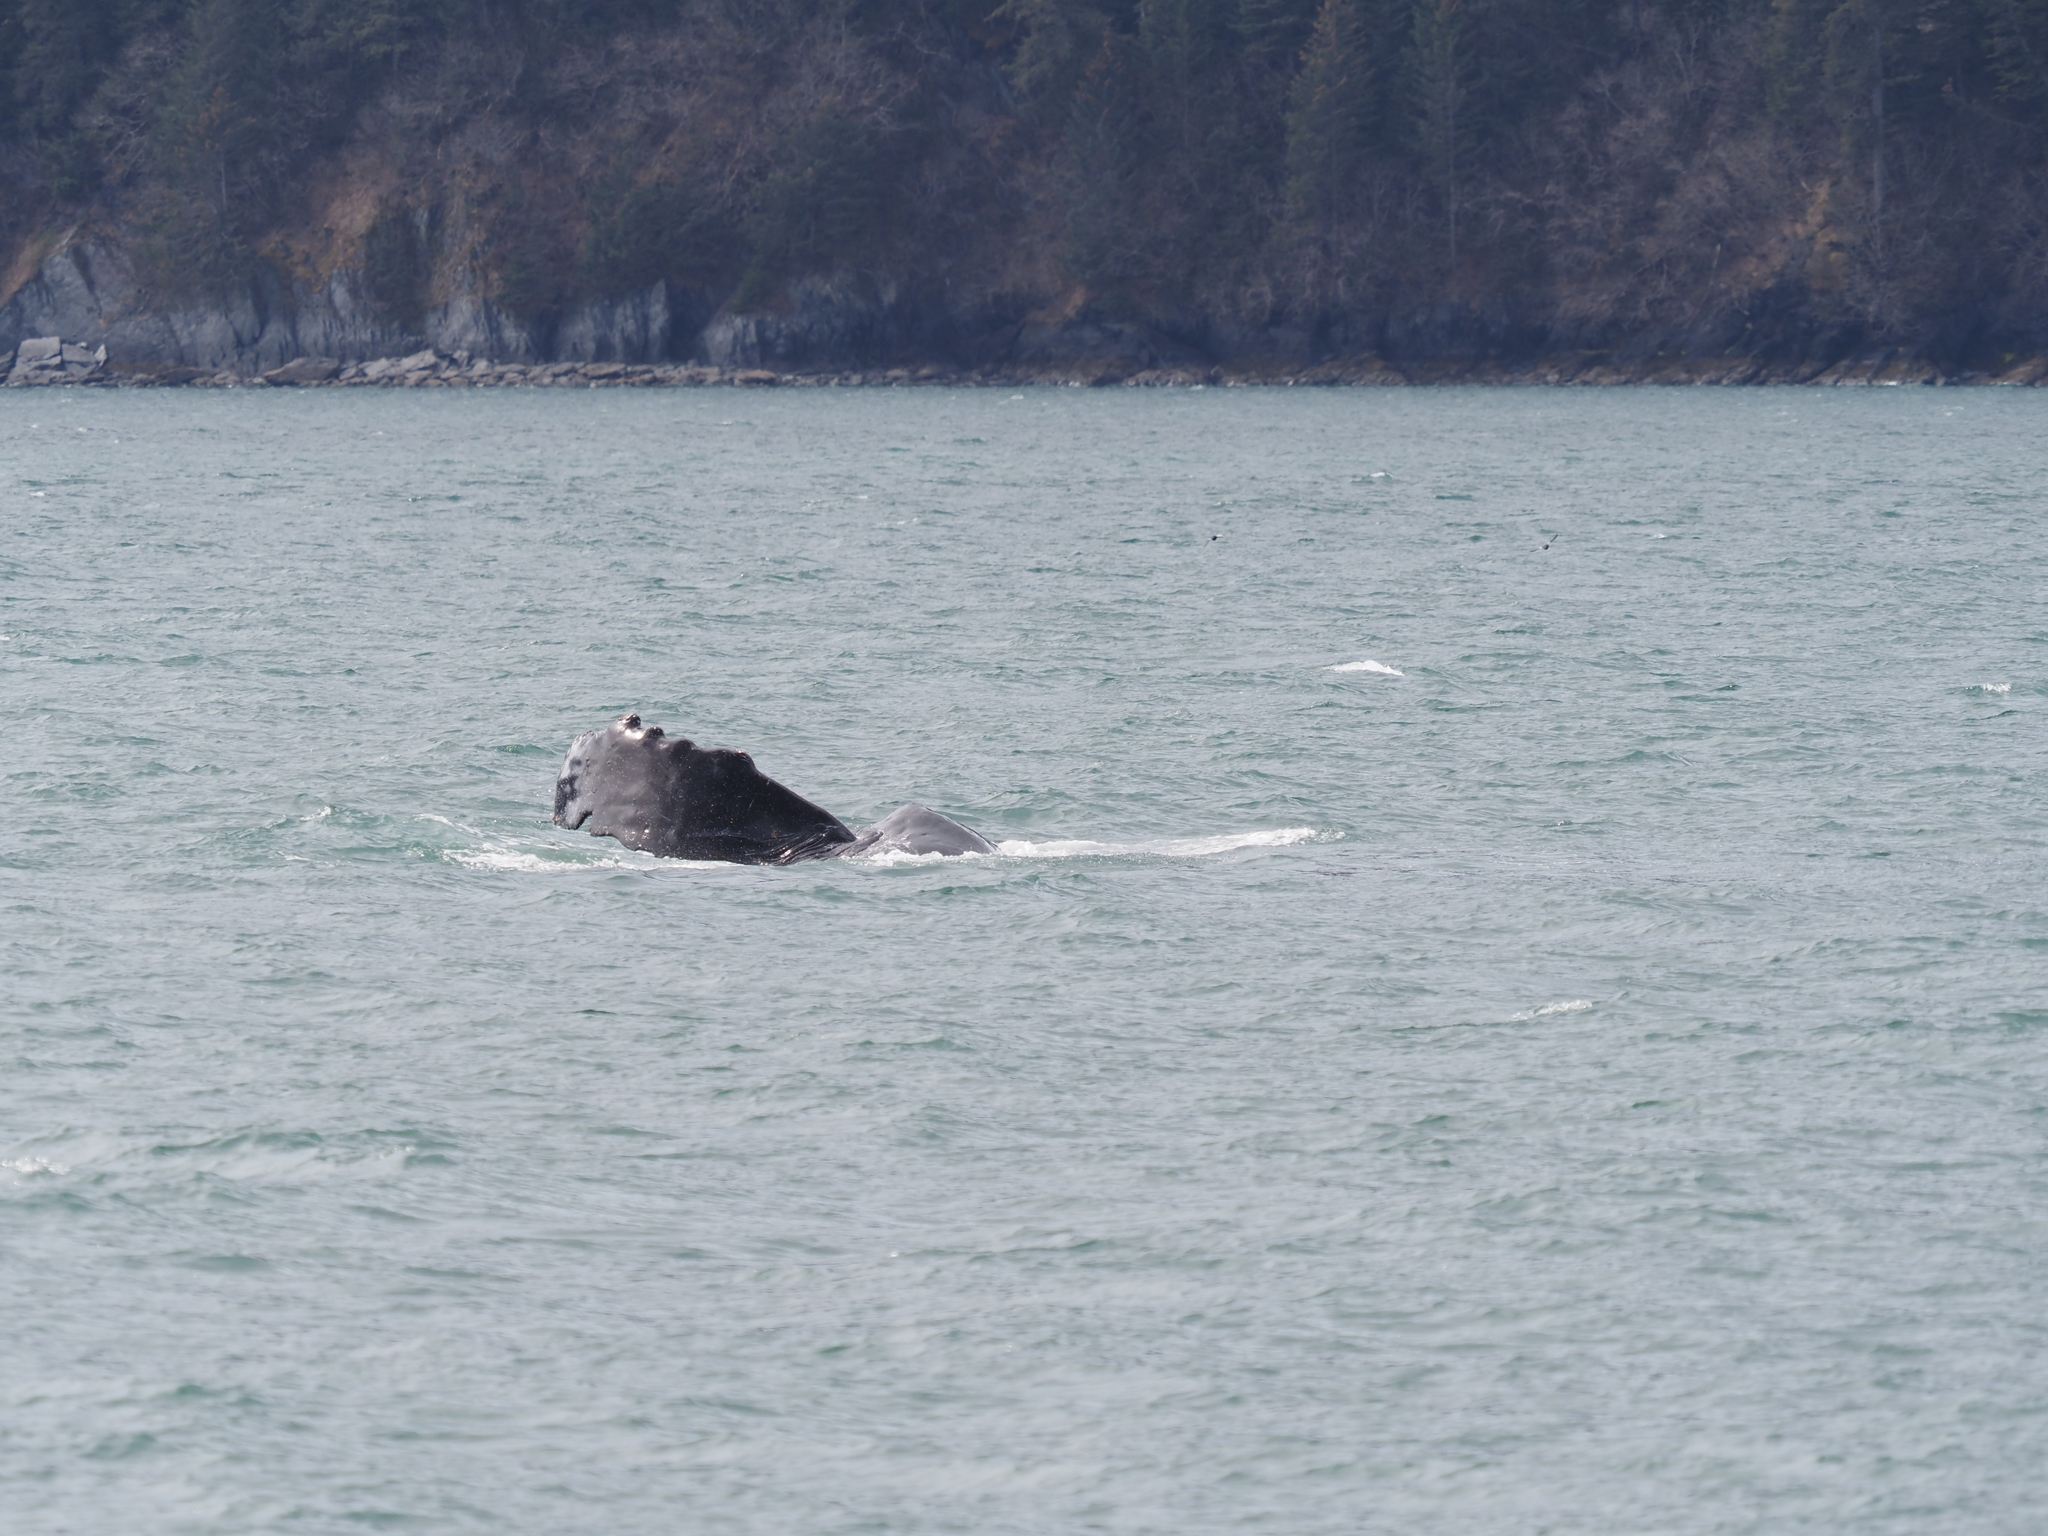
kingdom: Animalia
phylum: Chordata
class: Mammalia
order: Cetacea
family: Balaenopteridae
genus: Megaptera
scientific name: Megaptera novaeangliae
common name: Humpback whale
